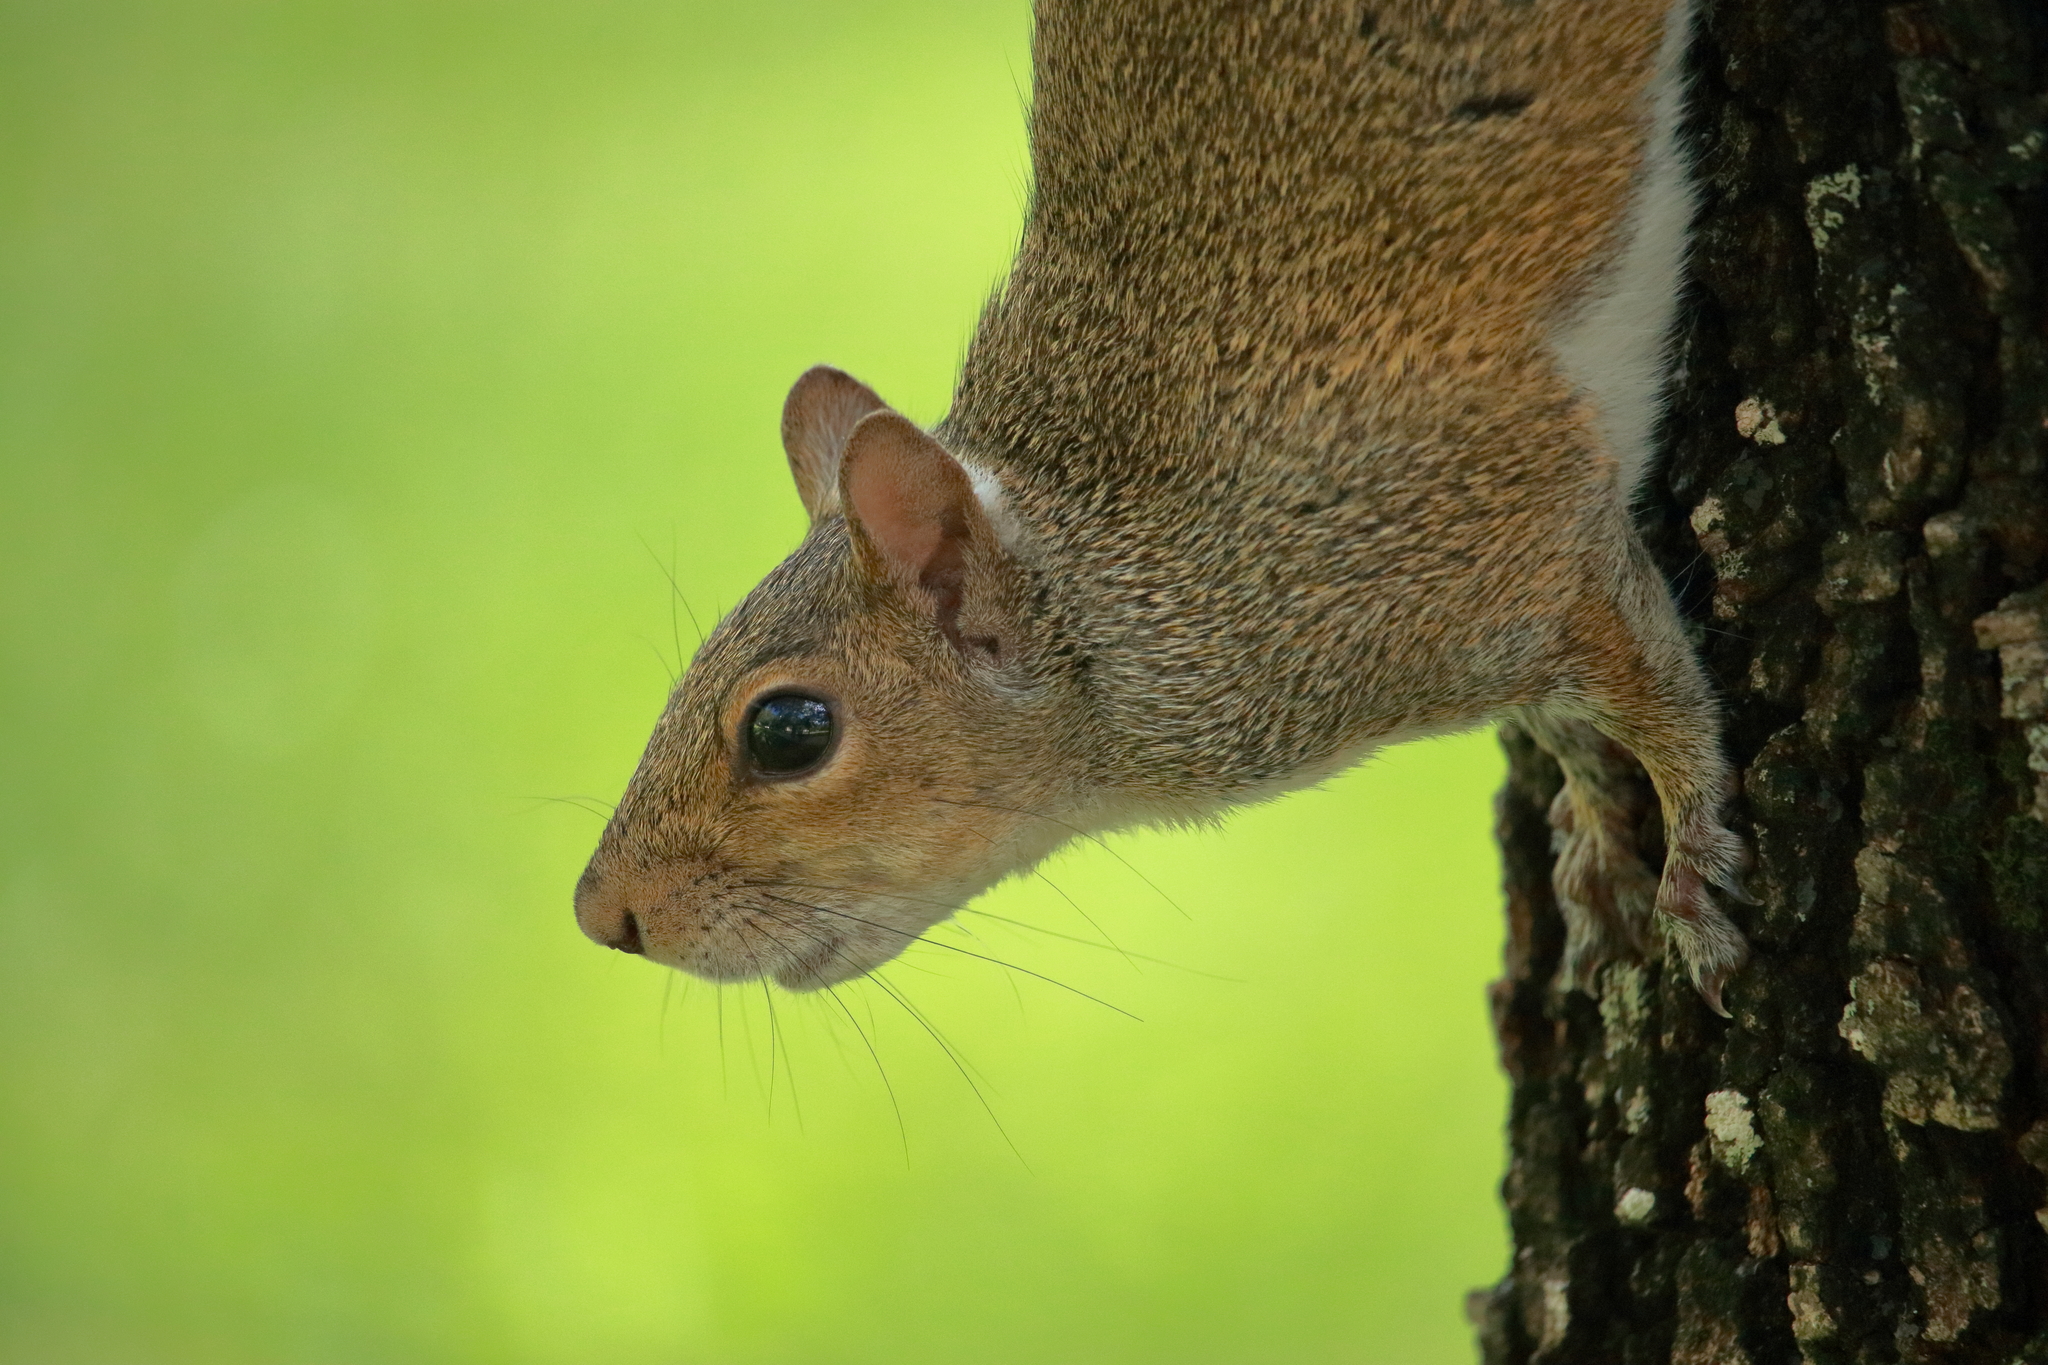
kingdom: Animalia
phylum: Chordata
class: Mammalia
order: Rodentia
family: Sciuridae
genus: Sciurus
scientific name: Sciurus carolinensis
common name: Eastern gray squirrel
